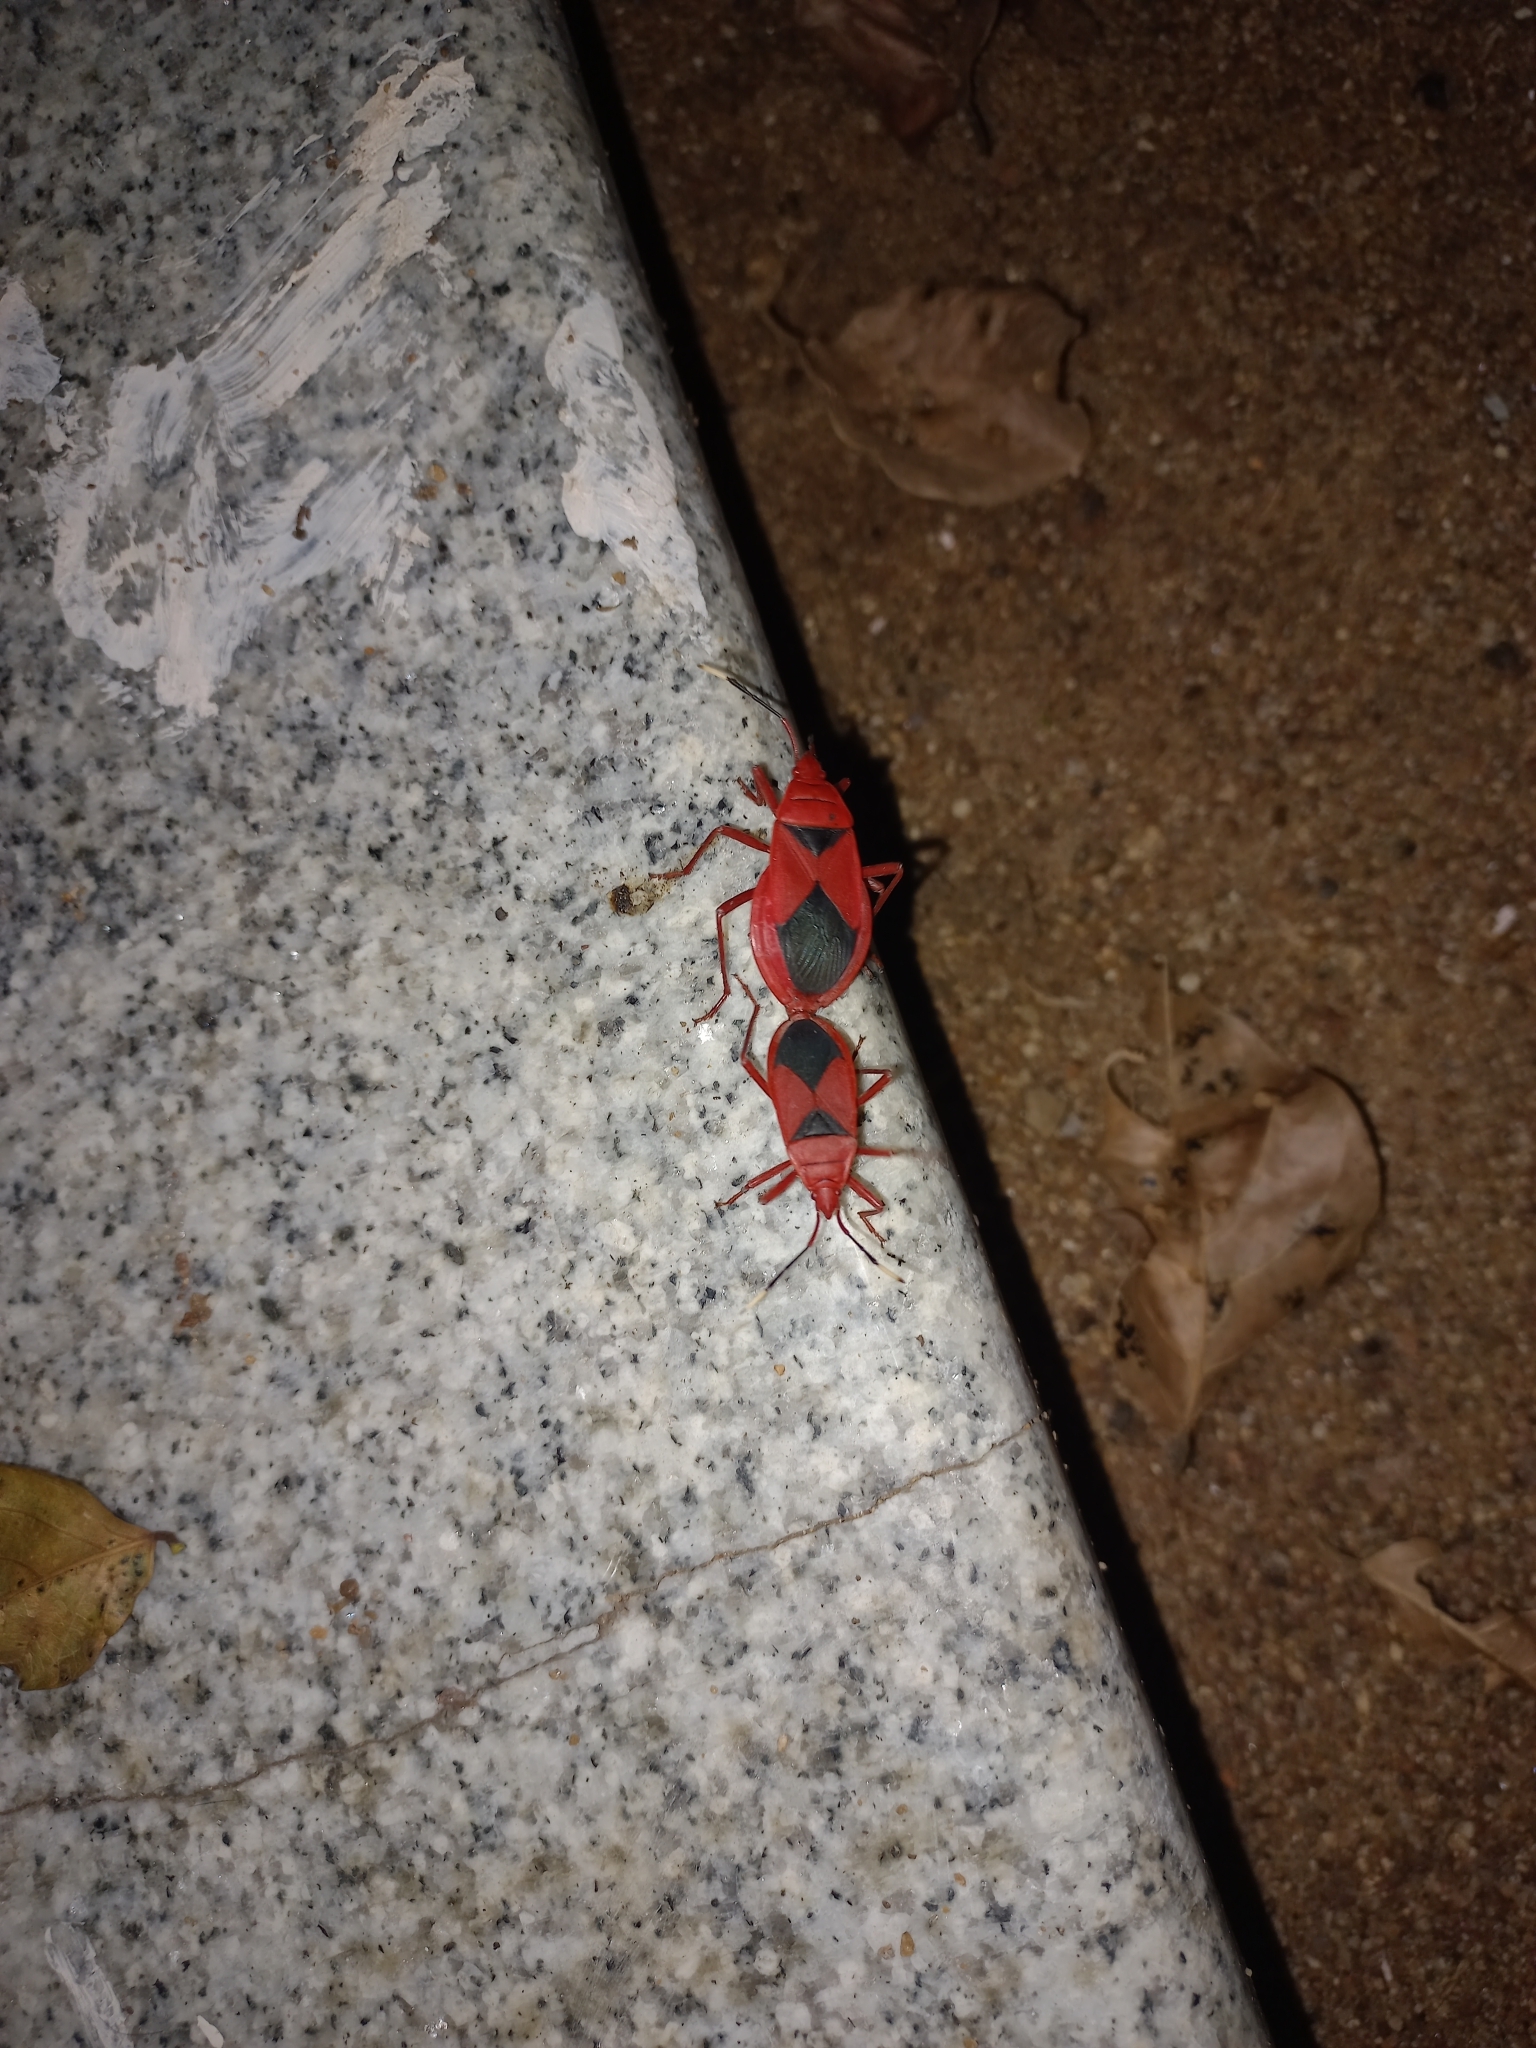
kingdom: Animalia
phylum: Arthropoda
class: Insecta
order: Hemiptera
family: Pyrrhocoridae
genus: Probergrothius
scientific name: Probergrothius
